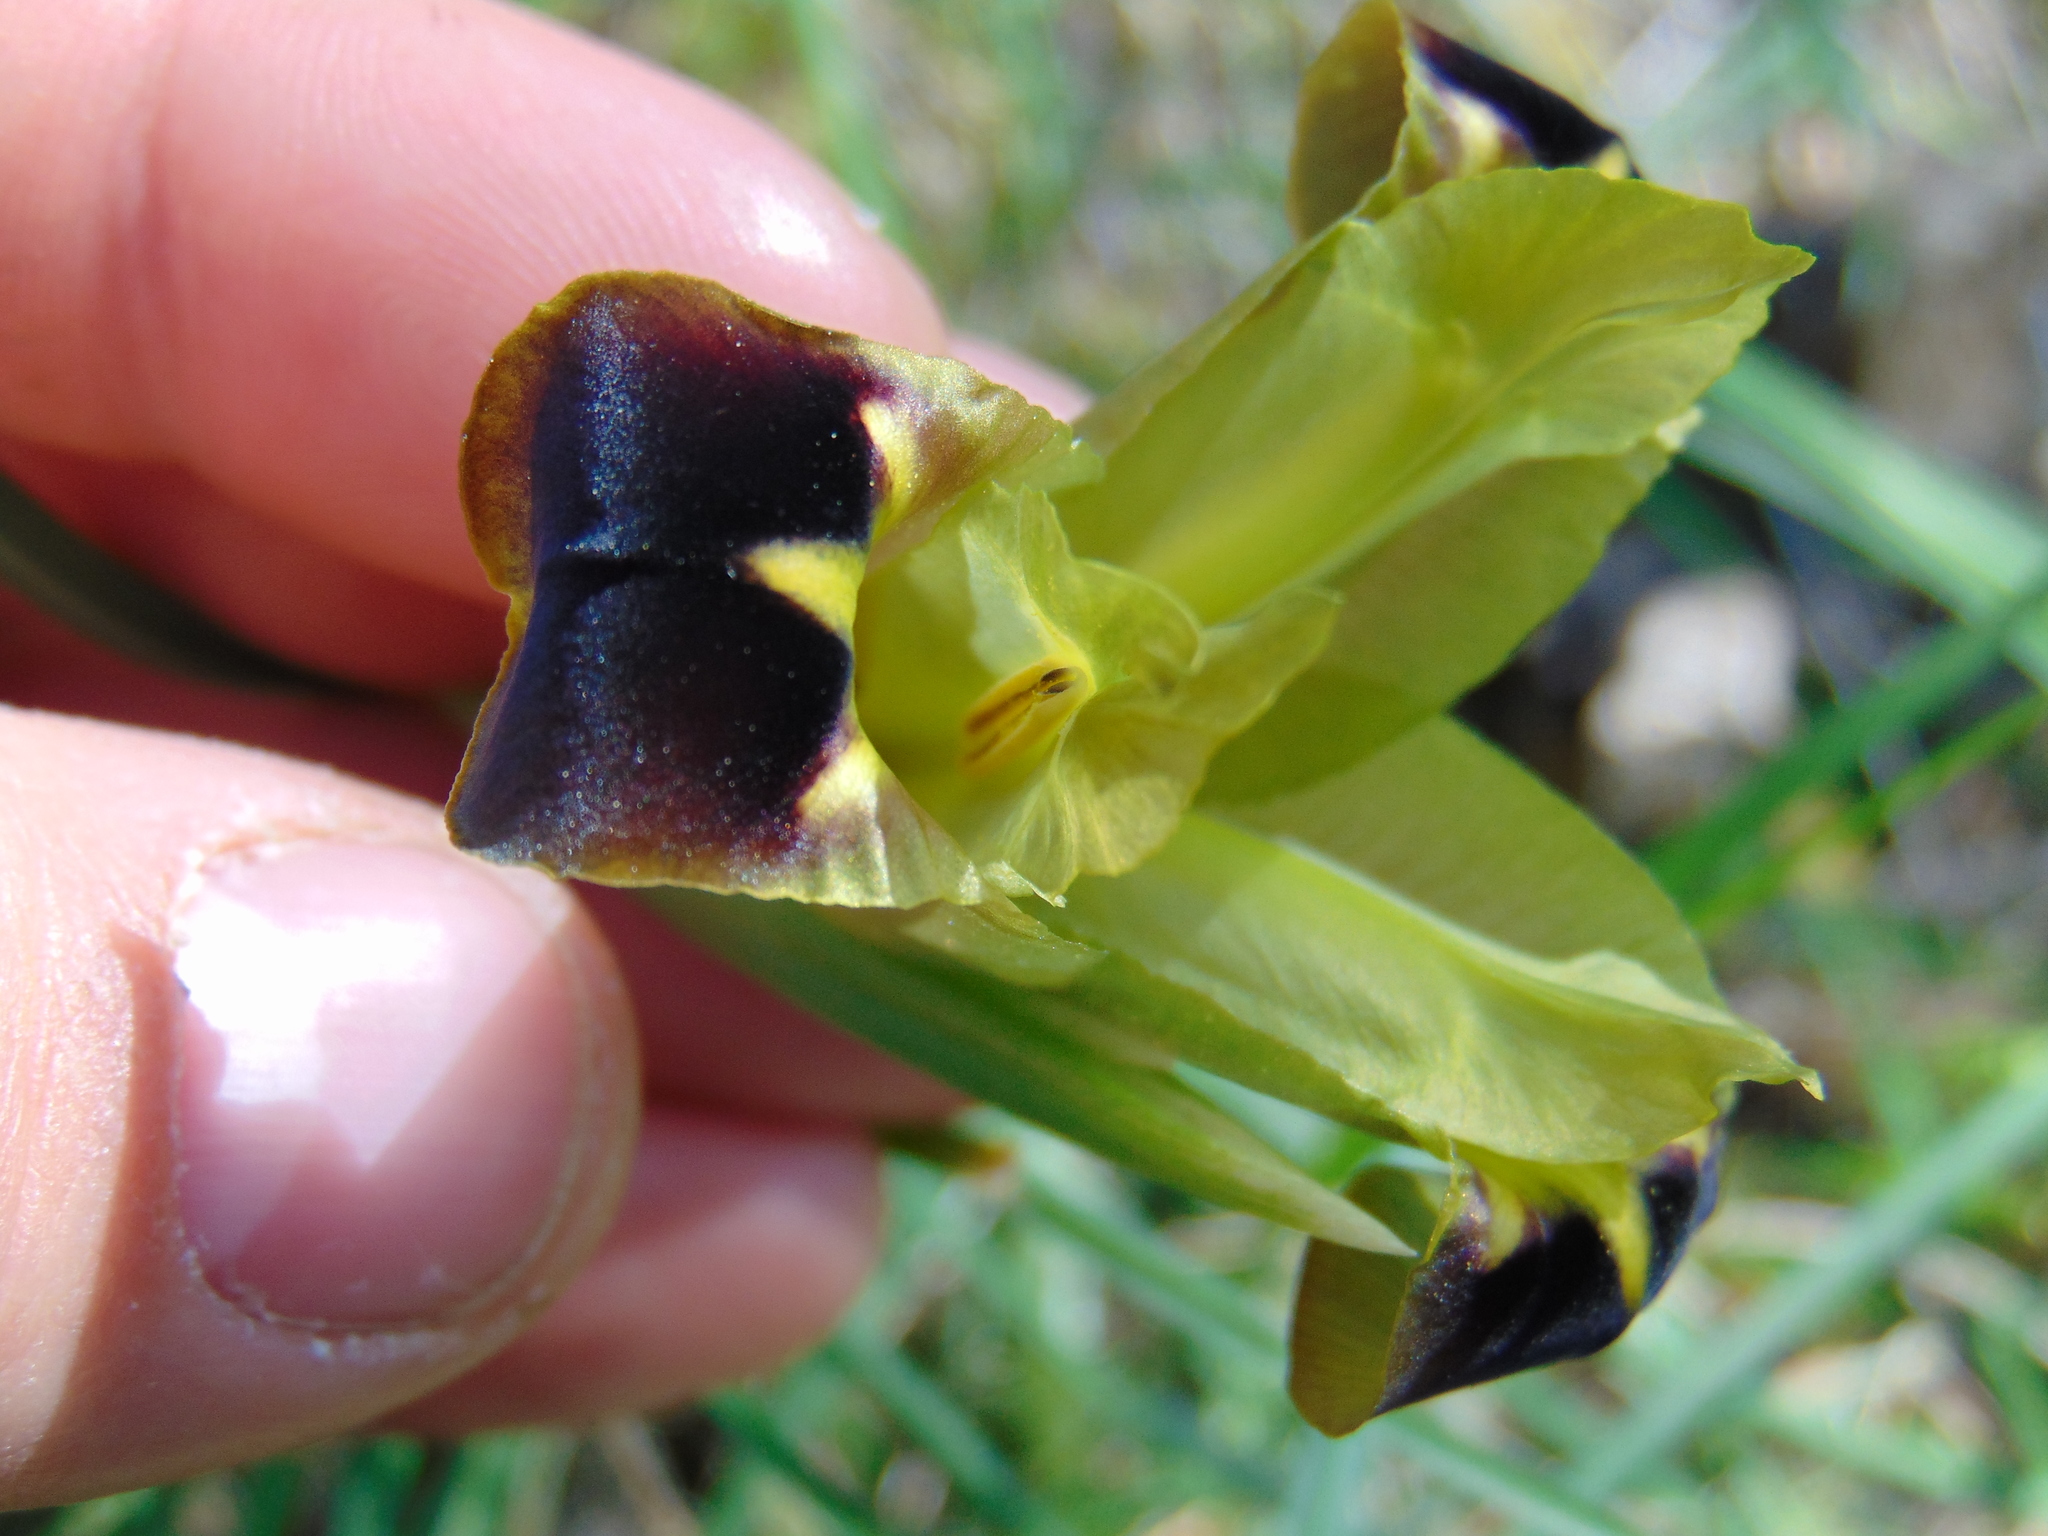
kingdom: Plantae
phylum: Tracheophyta
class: Liliopsida
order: Asparagales
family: Iridaceae
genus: Iris
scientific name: Iris tuberosa
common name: Snake's-head iris
